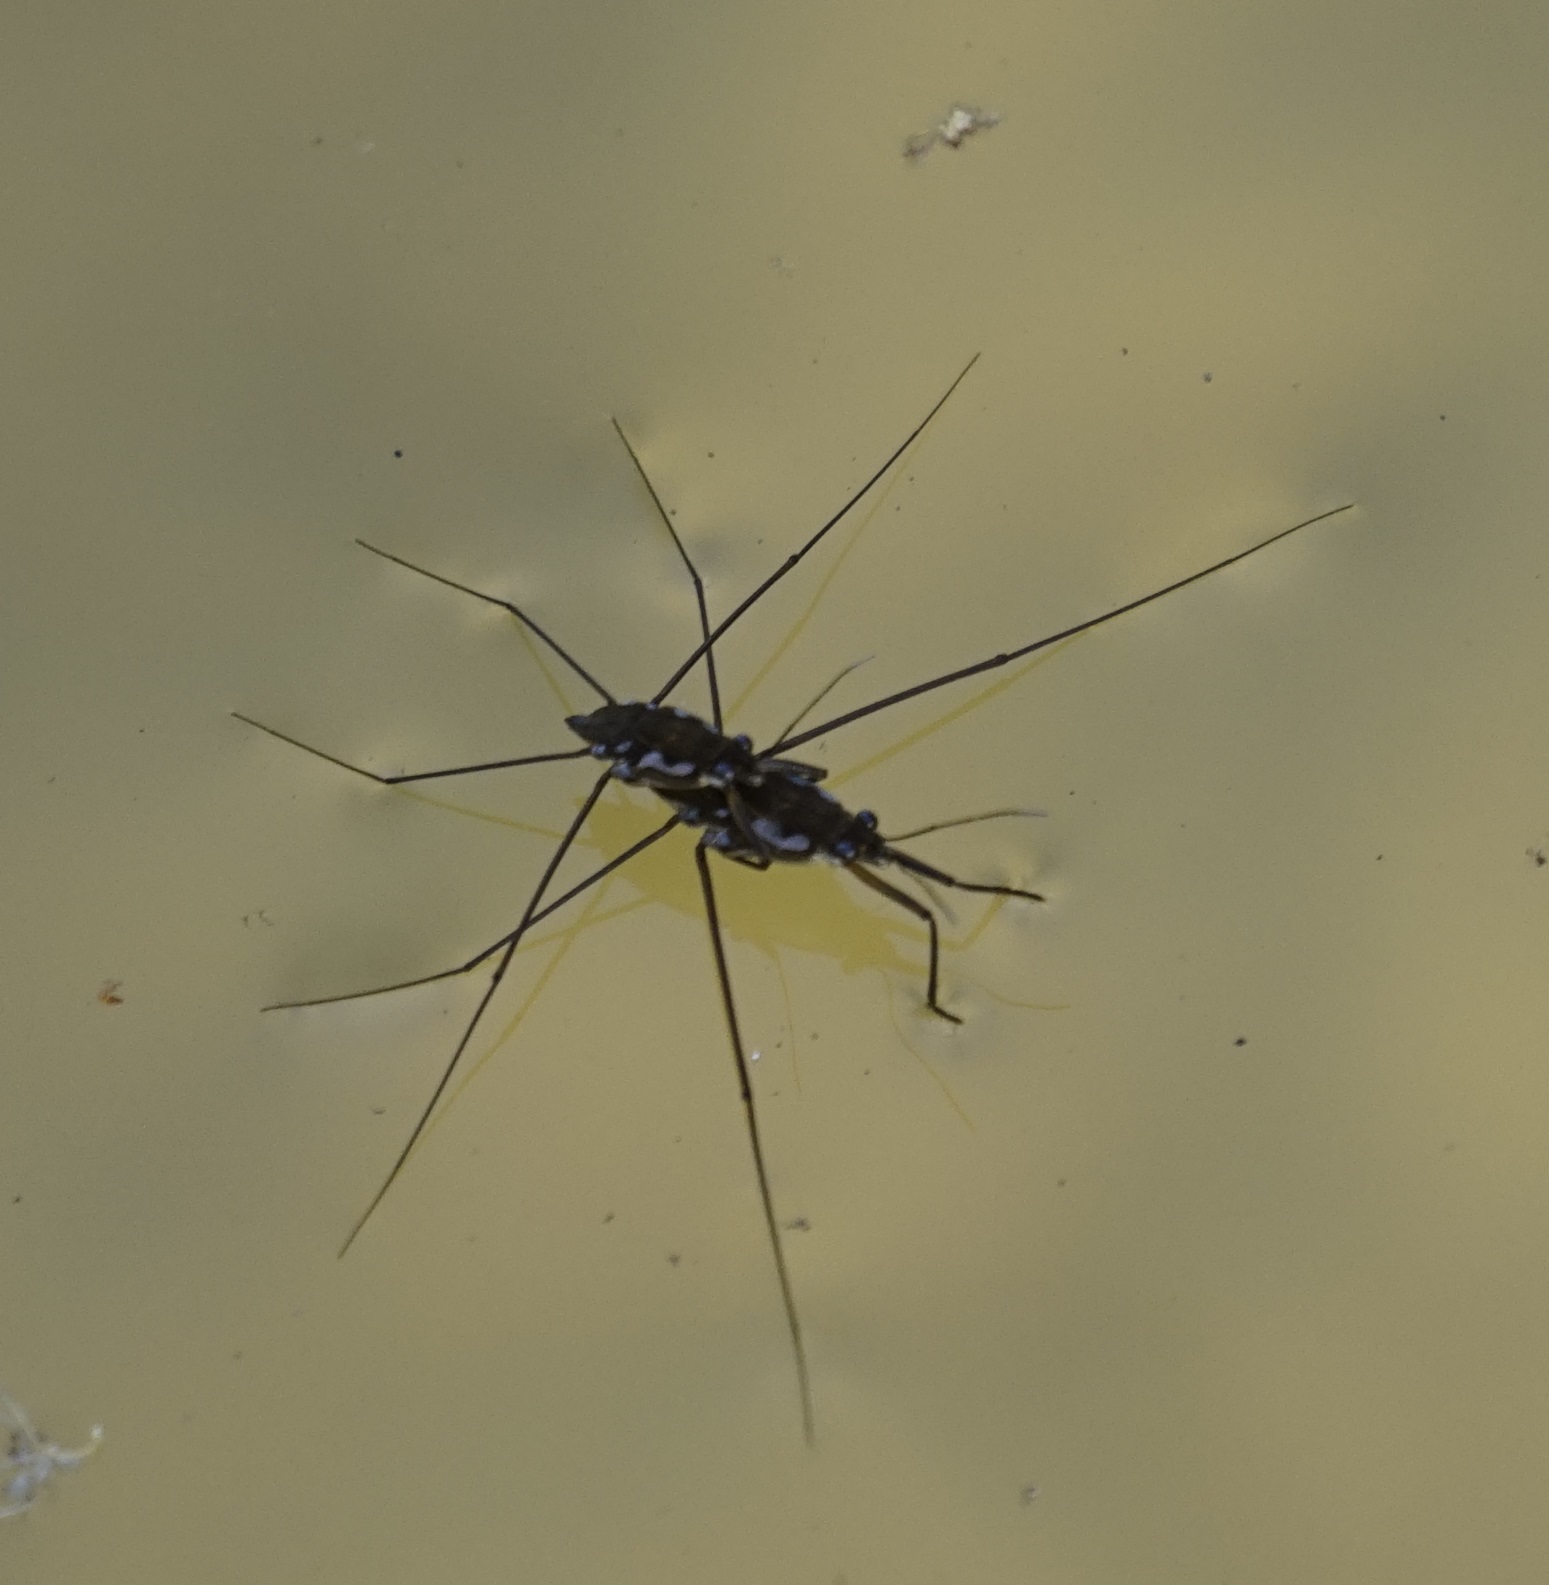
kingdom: Animalia
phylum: Arthropoda
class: Insecta
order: Hemiptera
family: Gerridae
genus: Tenagogerris
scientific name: Tenagogerris euphrosyne
